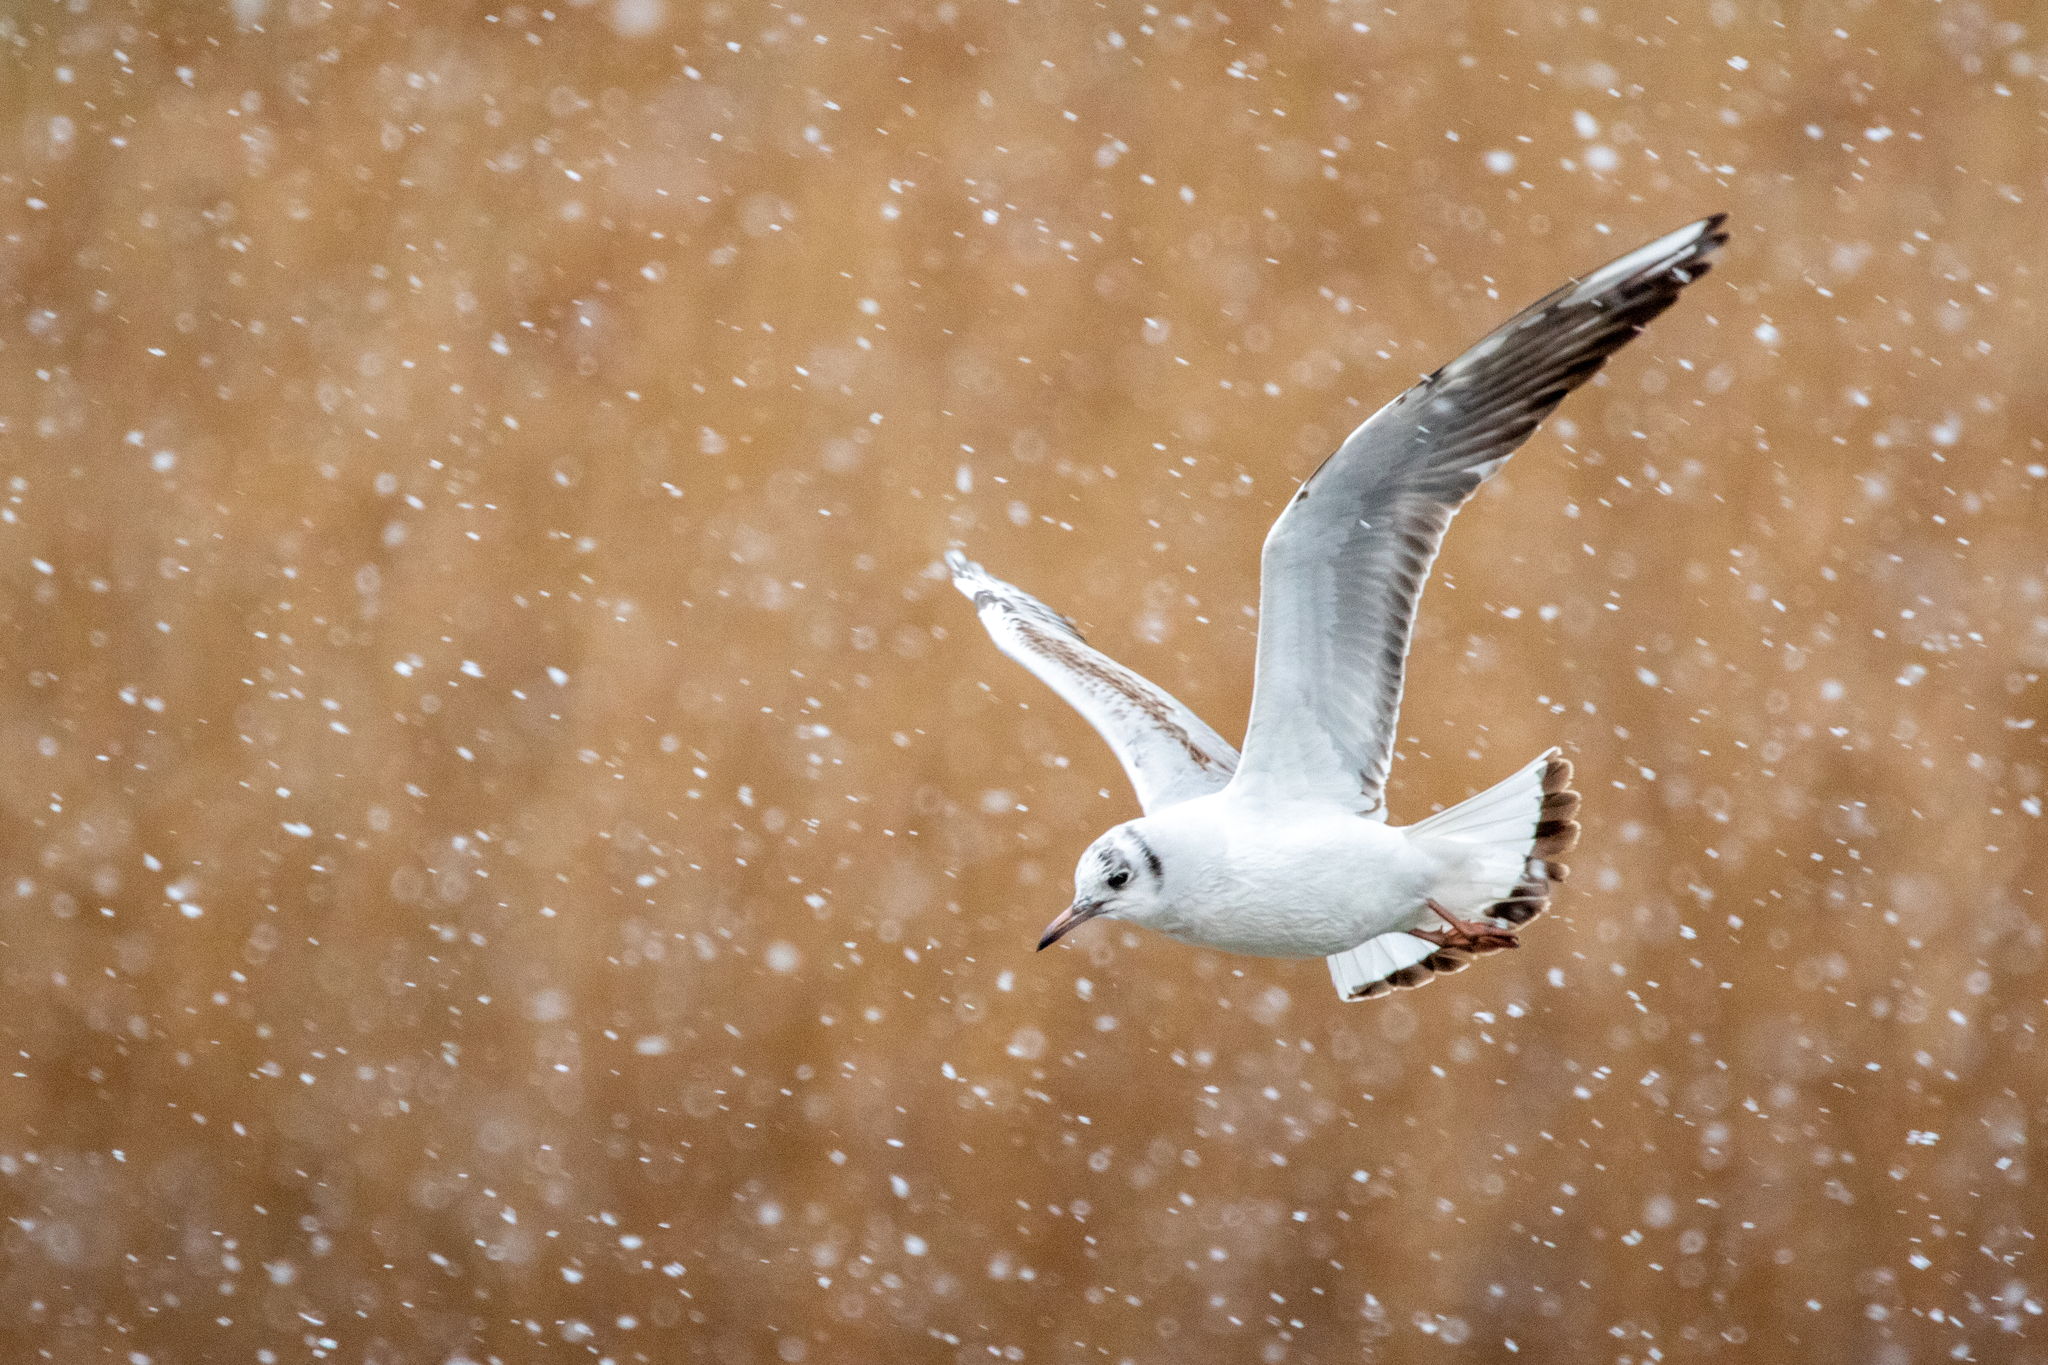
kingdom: Animalia
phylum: Chordata
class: Aves
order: Charadriiformes
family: Laridae
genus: Chroicocephalus
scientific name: Chroicocephalus ridibundus
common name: Black-headed gull
